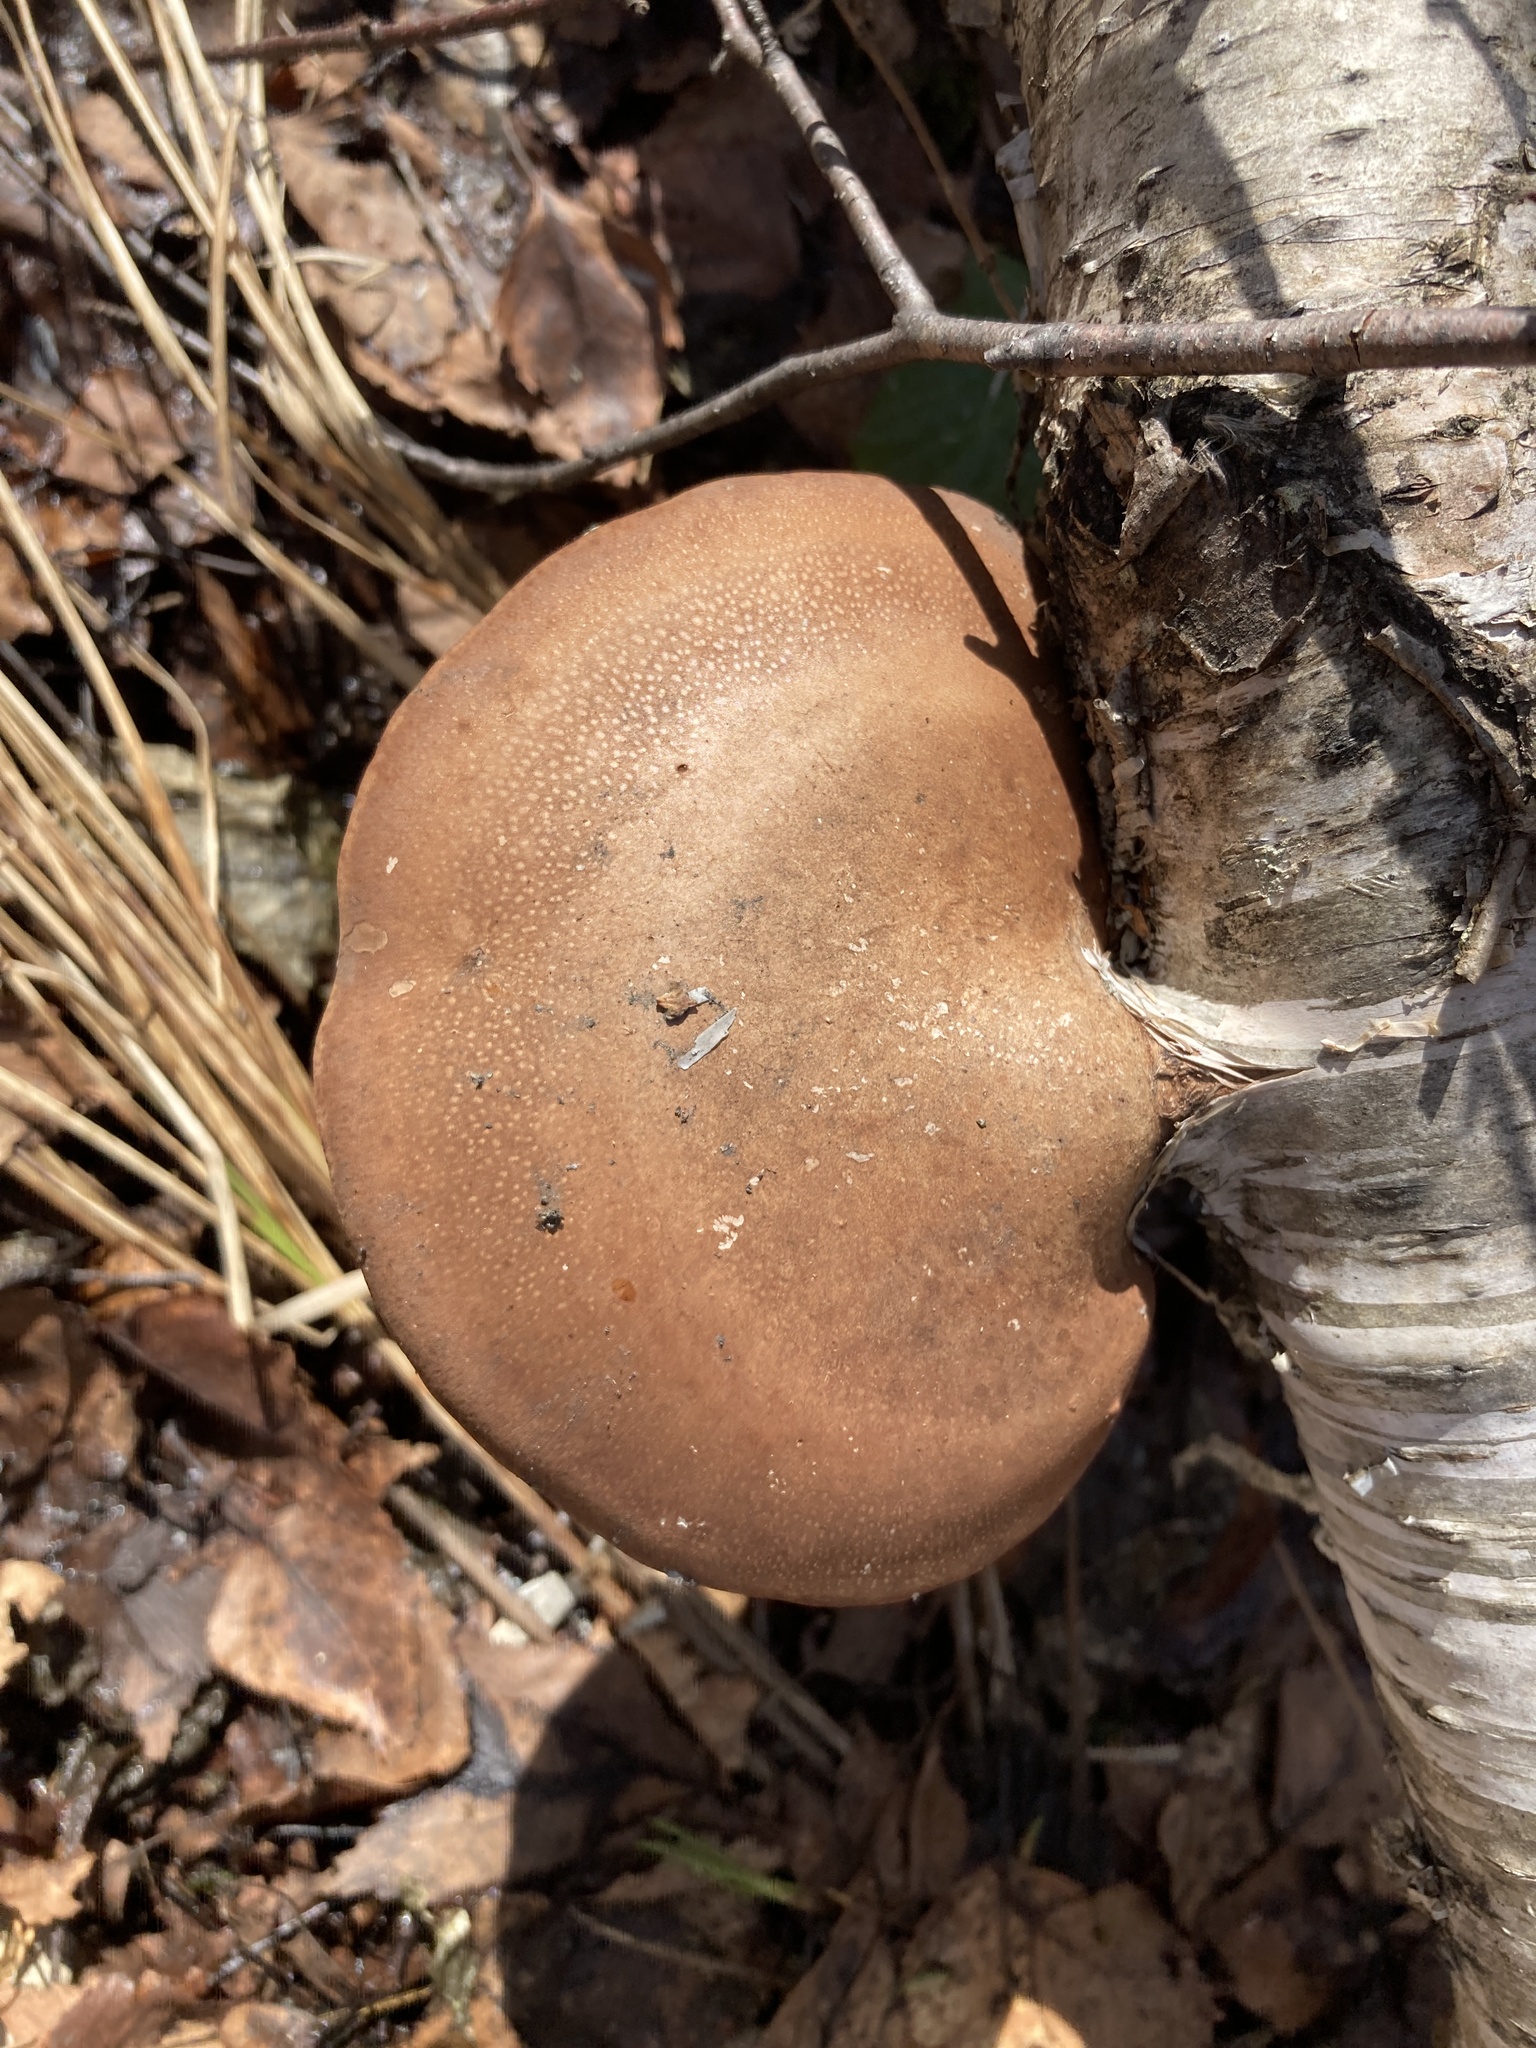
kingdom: Fungi
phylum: Basidiomycota
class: Agaricomycetes
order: Polyporales
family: Fomitopsidaceae
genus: Fomitopsis
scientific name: Fomitopsis betulina
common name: Birch polypore
